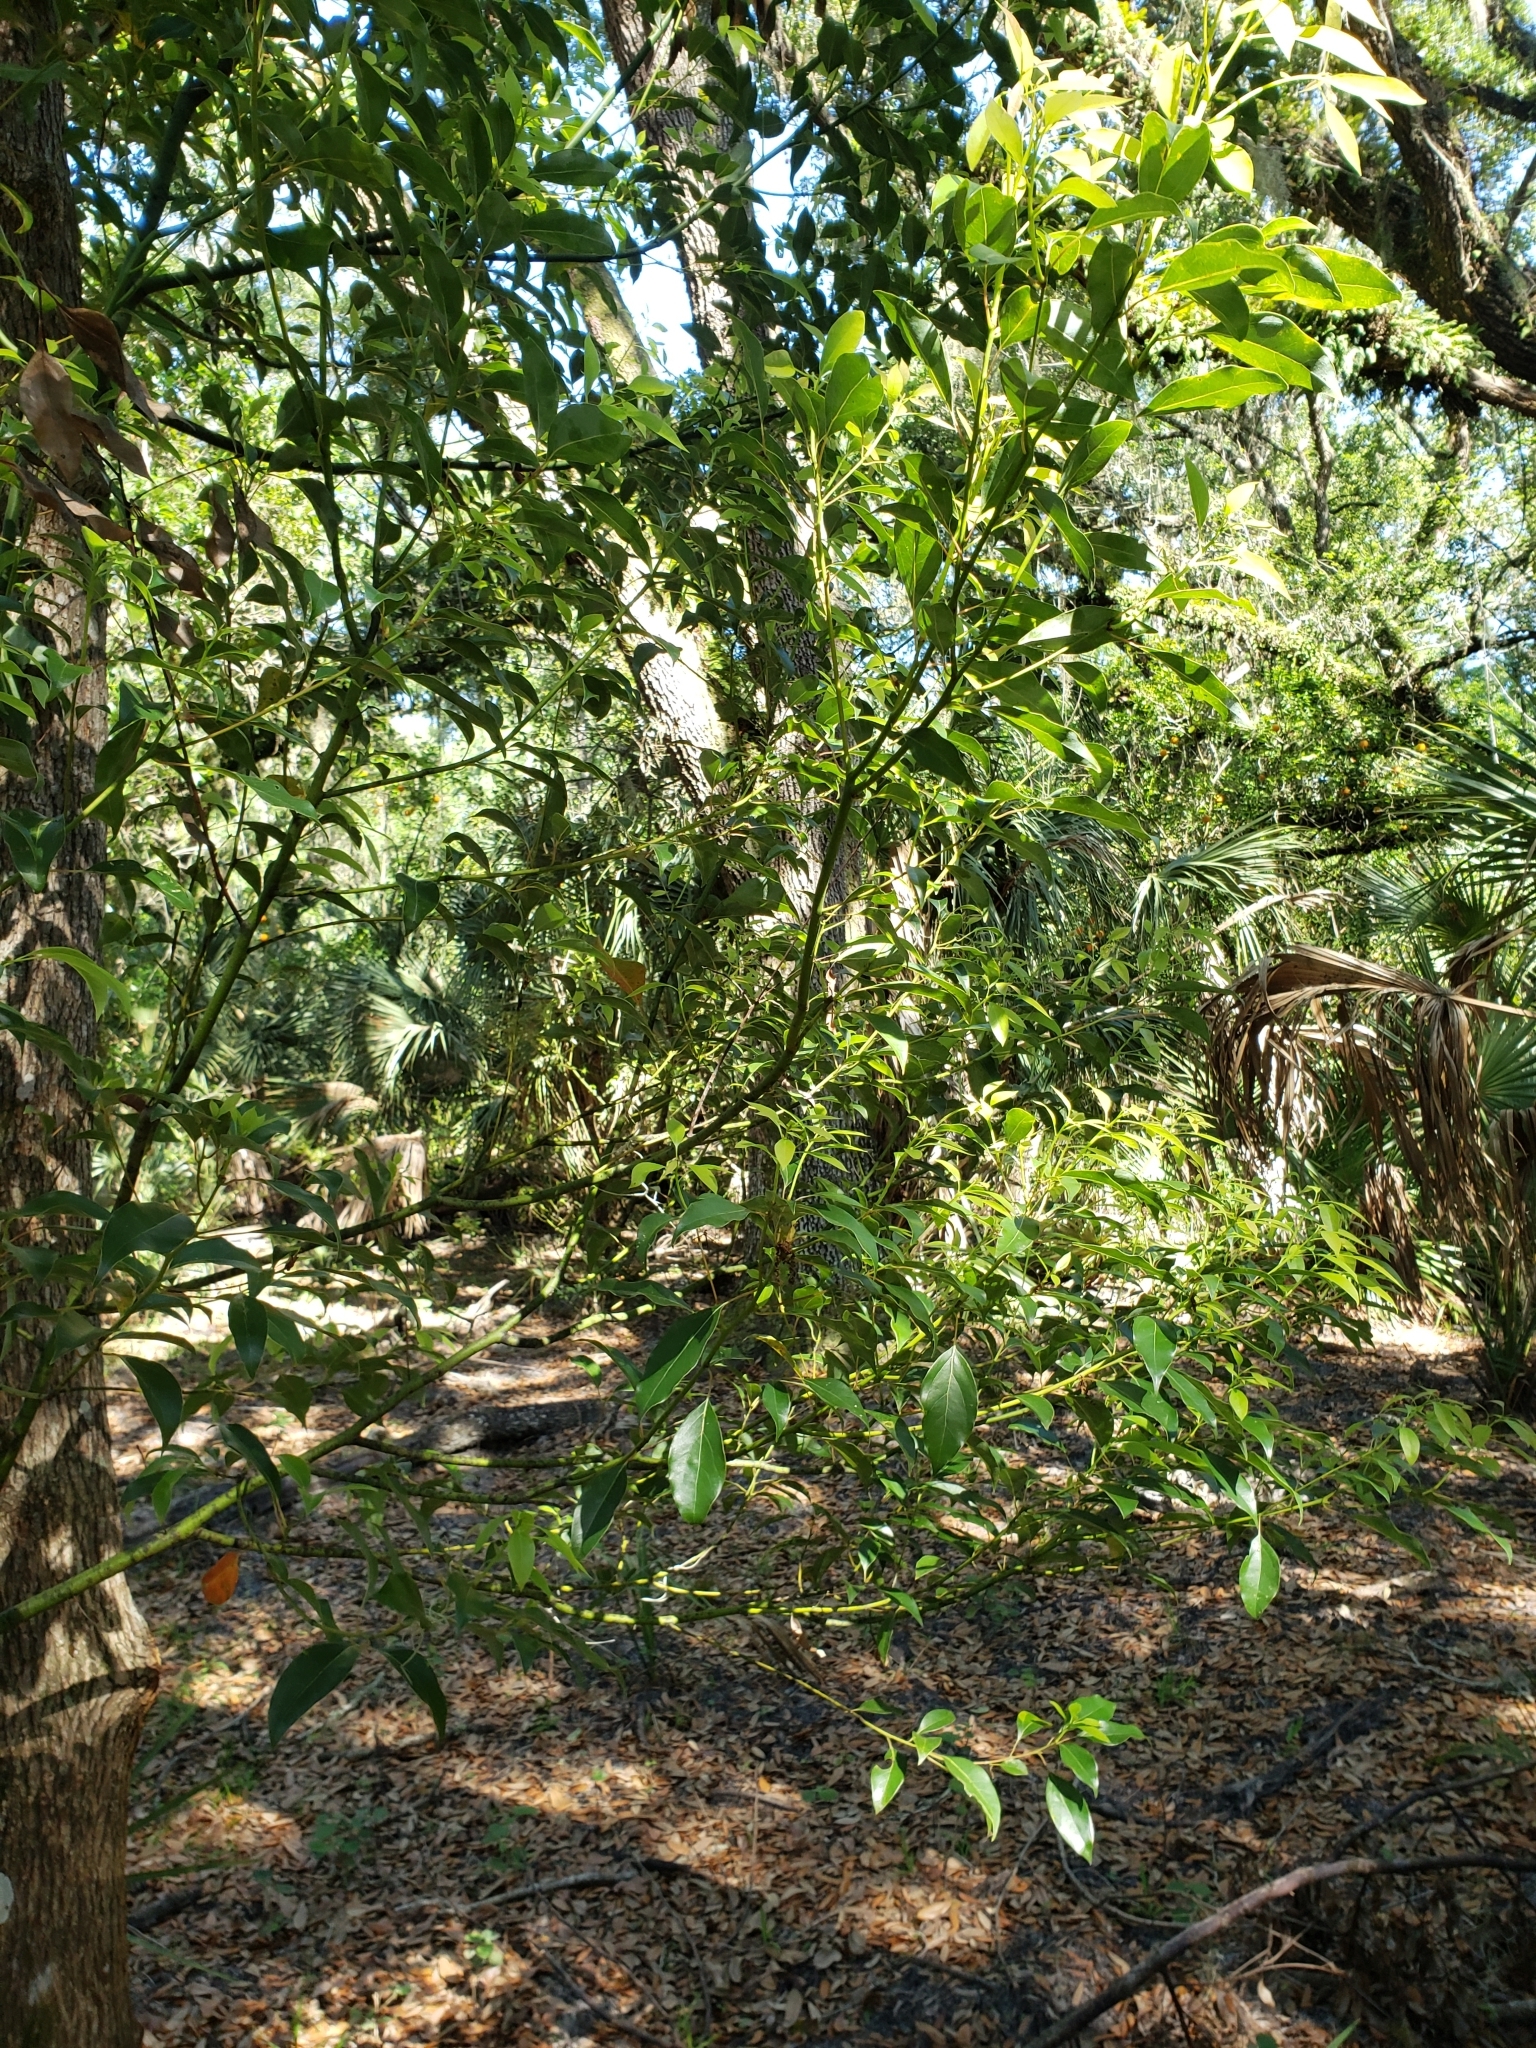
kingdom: Plantae
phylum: Tracheophyta
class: Magnoliopsida
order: Laurales
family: Lauraceae
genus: Cinnamomum
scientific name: Cinnamomum camphora
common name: Camphortree
